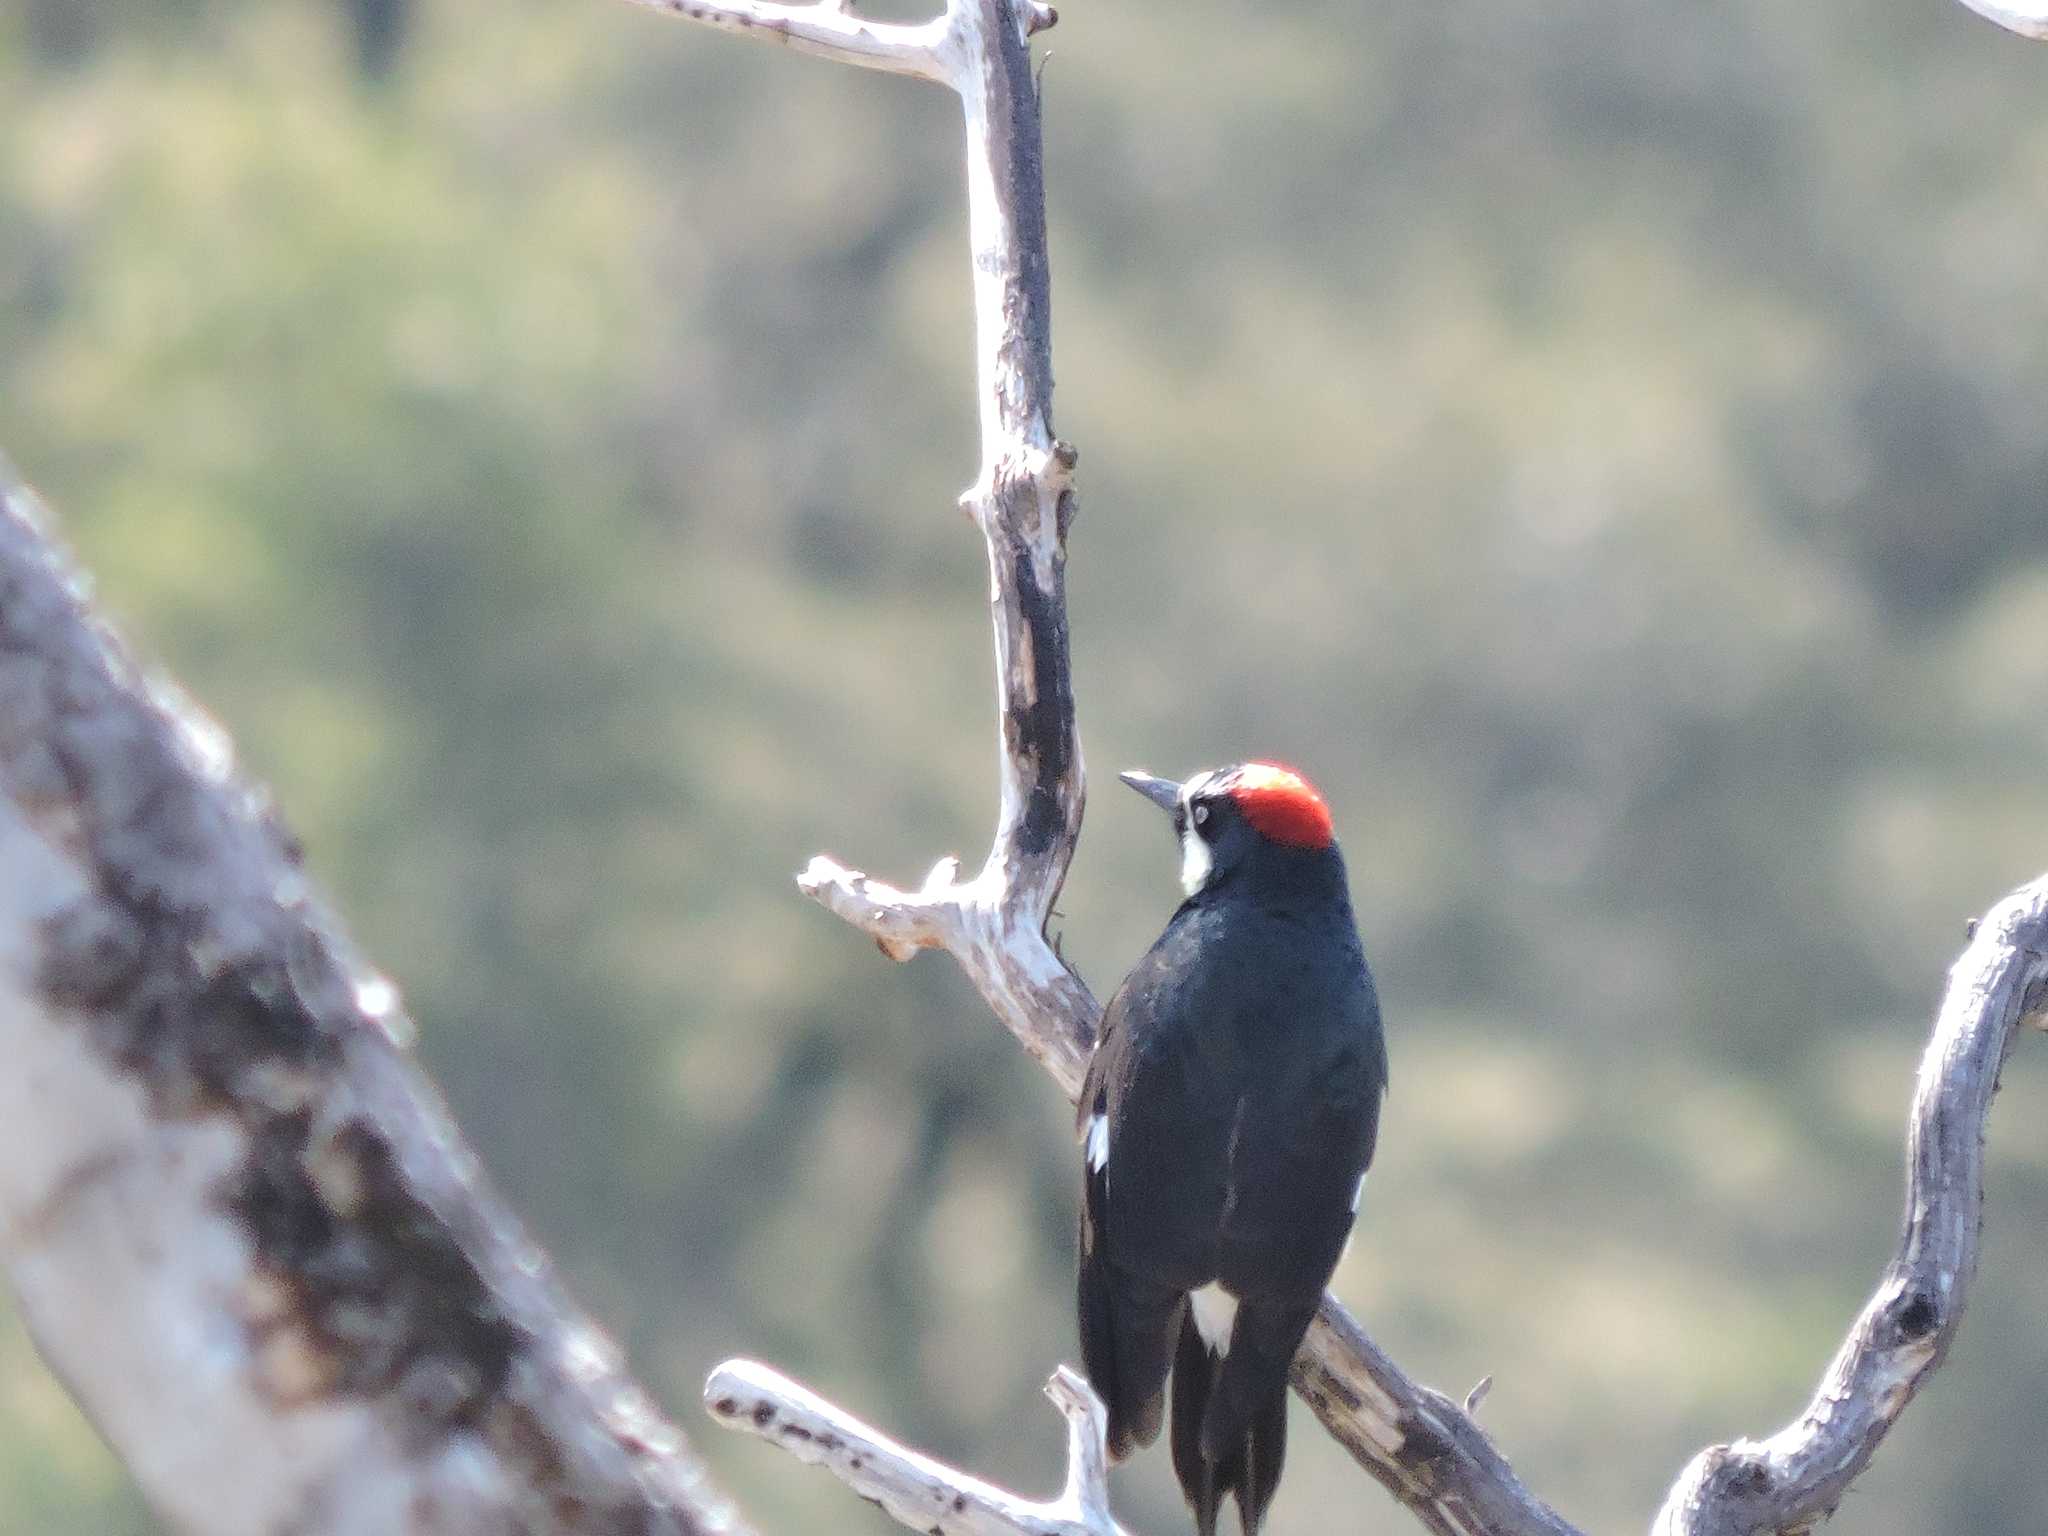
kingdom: Animalia
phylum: Chordata
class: Aves
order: Piciformes
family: Picidae
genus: Melanerpes
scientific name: Melanerpes formicivorus
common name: Acorn woodpecker
